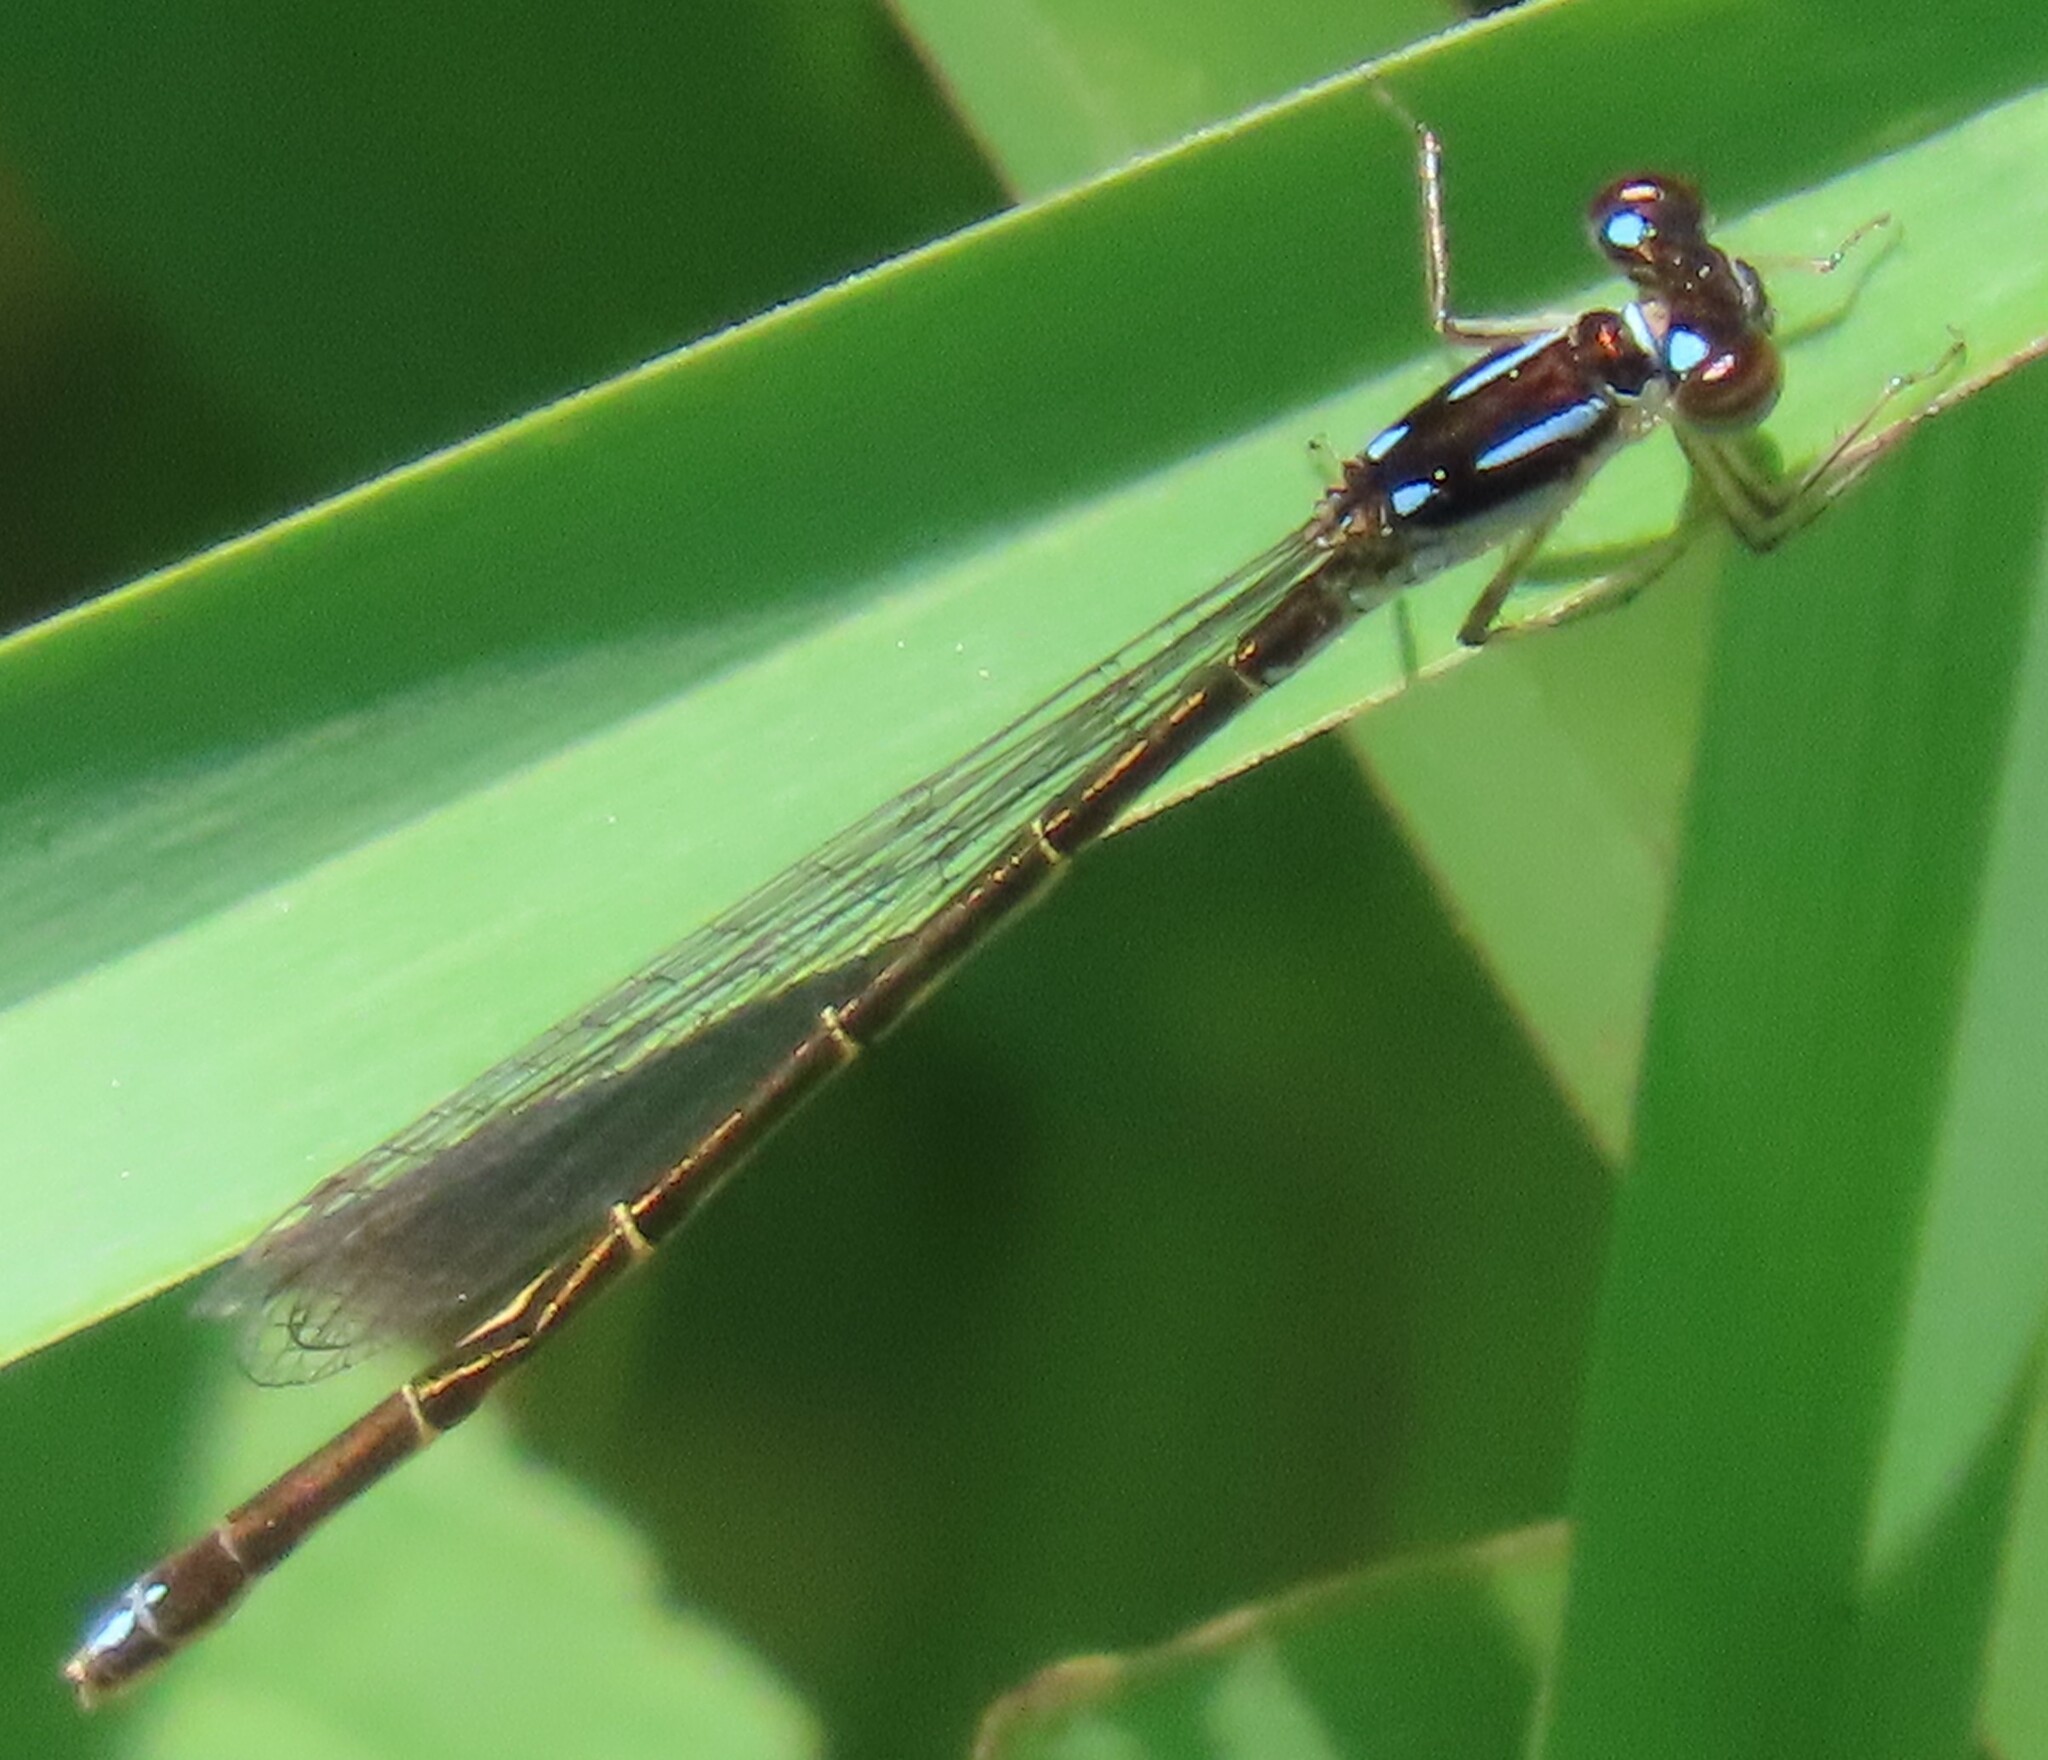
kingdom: Animalia
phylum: Arthropoda
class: Insecta
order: Odonata
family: Coenagrionidae
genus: Ischnura
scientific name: Ischnura posita
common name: Fragile forktail
